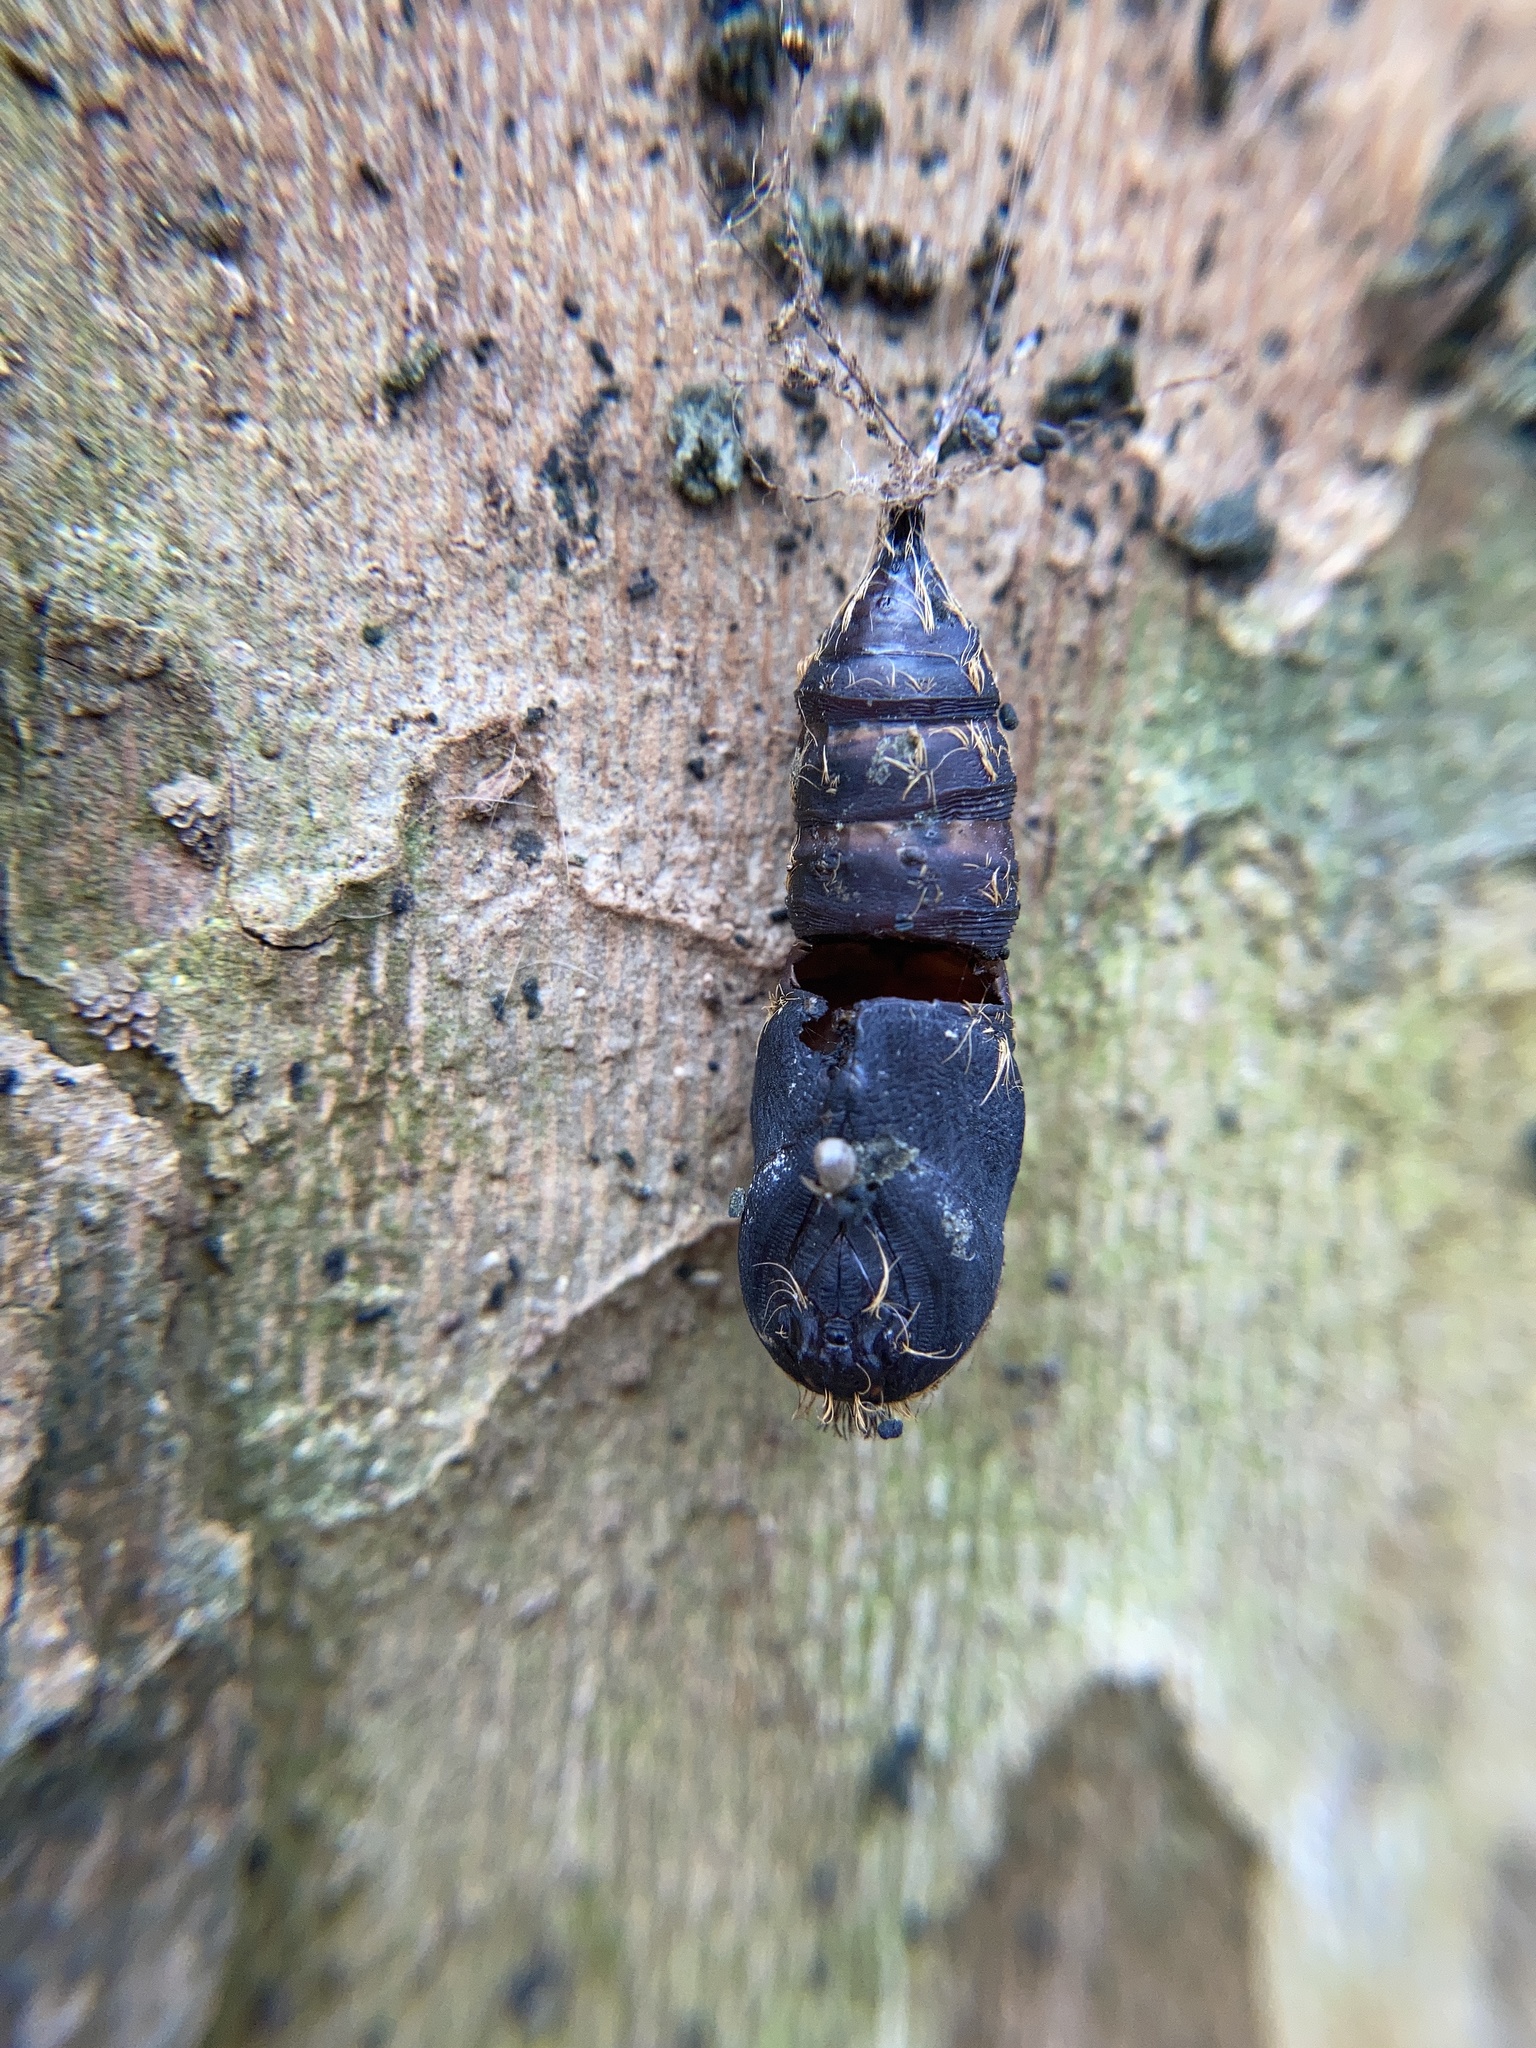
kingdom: Animalia
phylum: Arthropoda
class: Insecta
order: Lepidoptera
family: Erebidae
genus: Lymantria
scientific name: Lymantria dispar
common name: Gypsy moth
